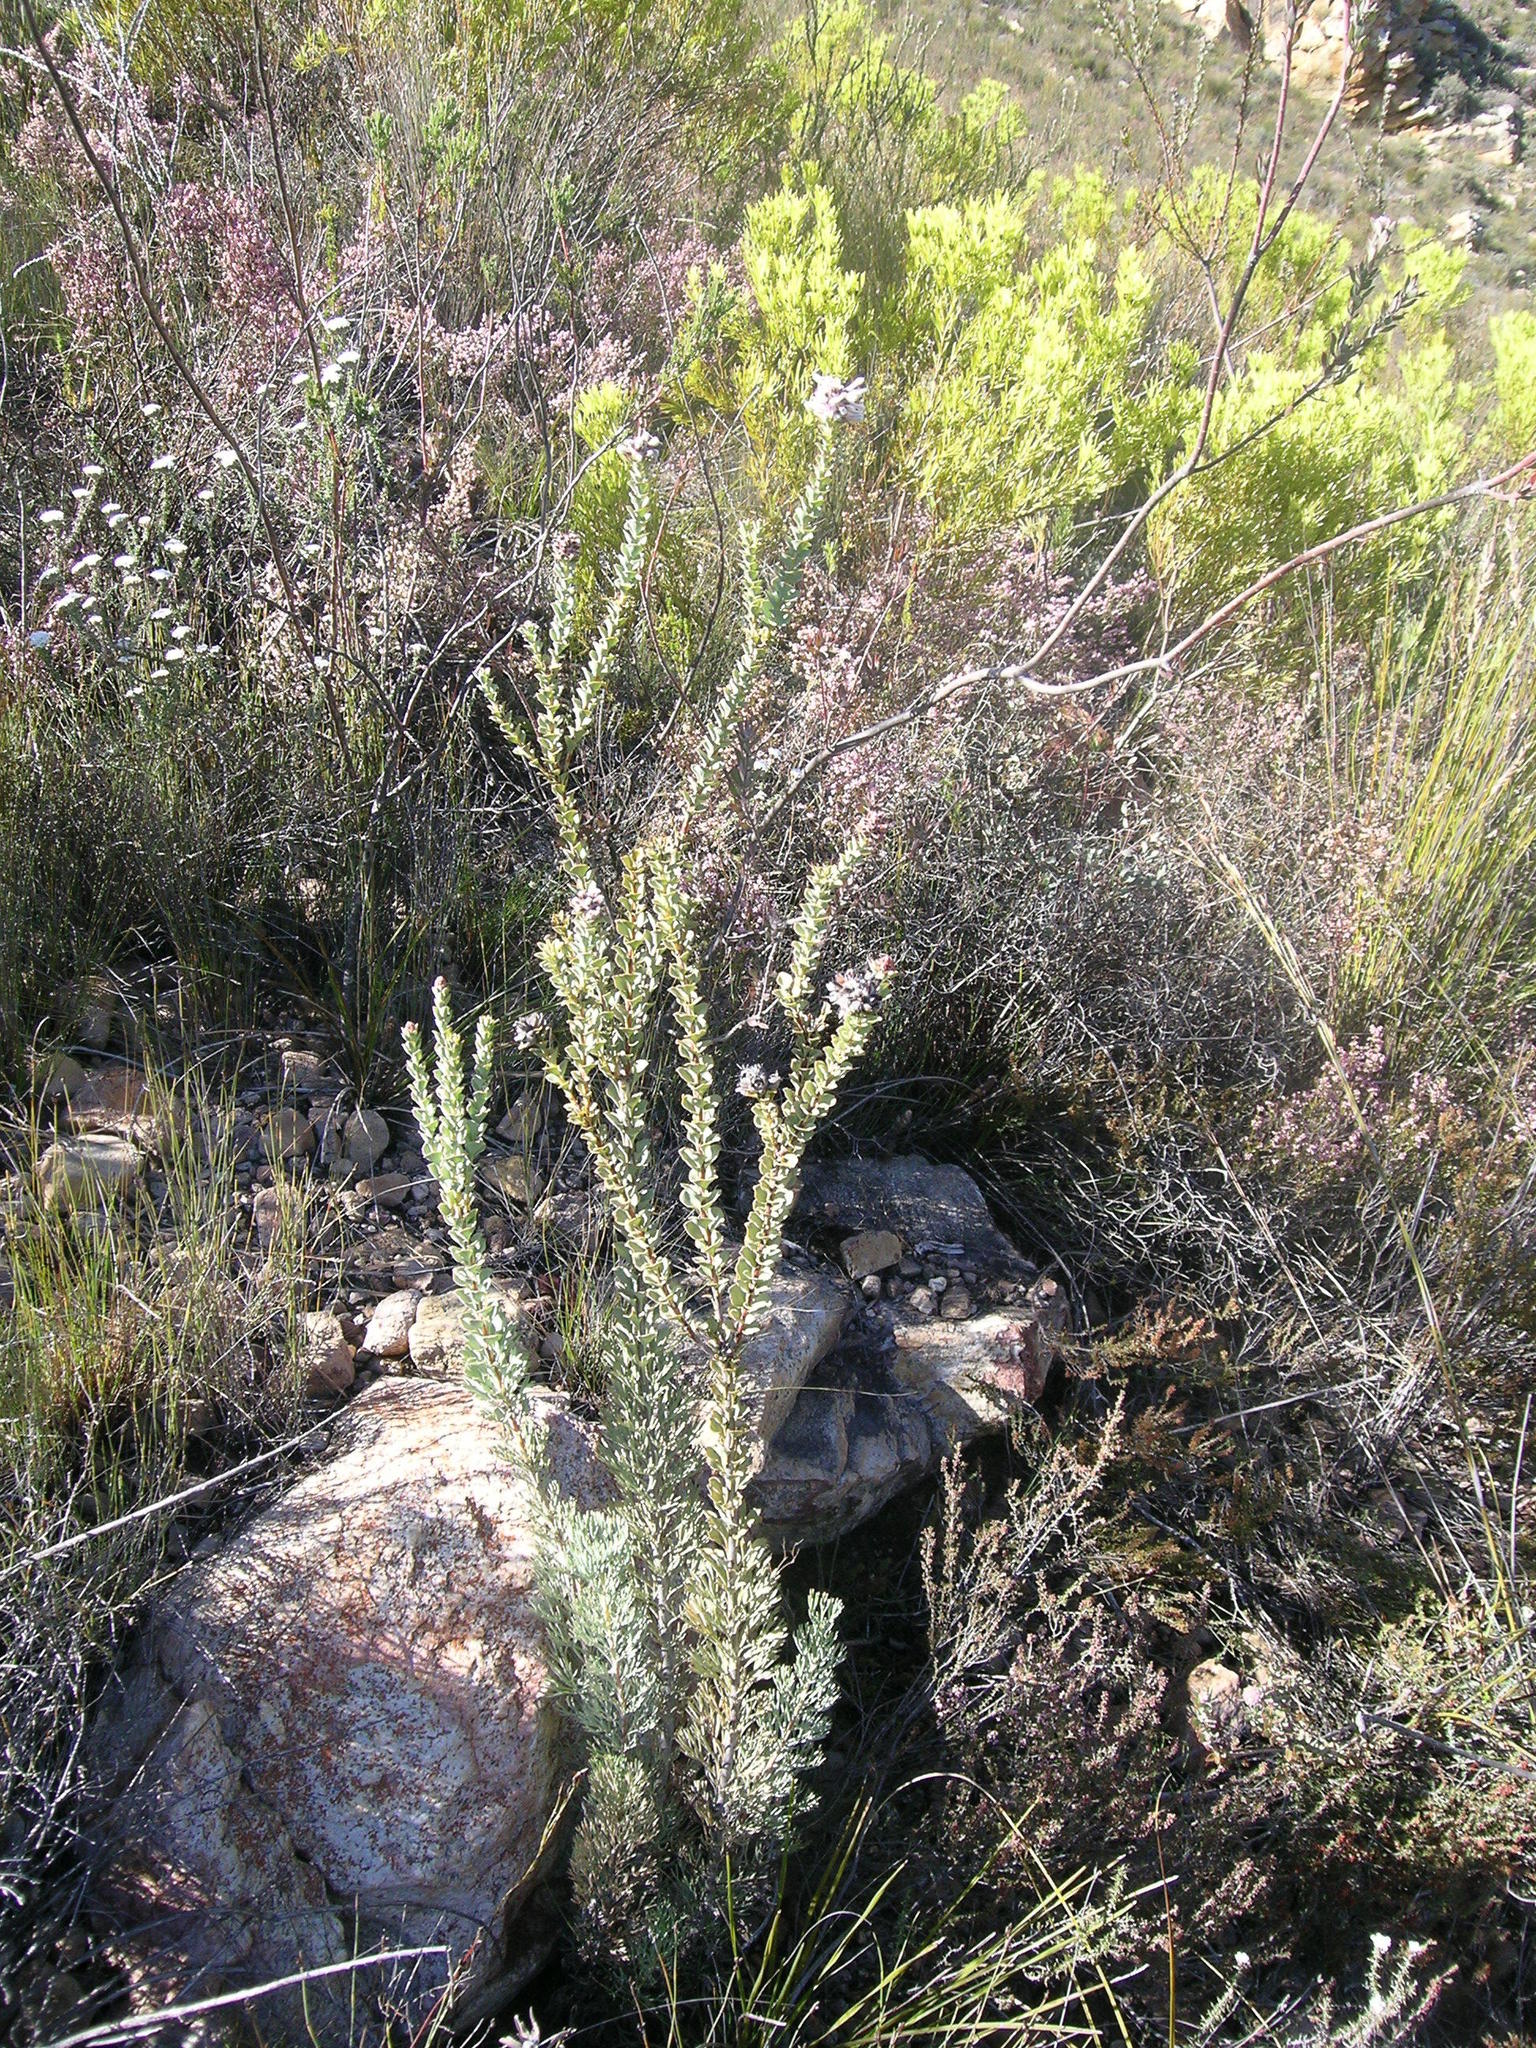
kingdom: Plantae
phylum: Tracheophyta
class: Magnoliopsida
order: Proteales
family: Proteaceae
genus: Paranomus
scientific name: Paranomus spathulatus
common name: Langeberg sceptre
